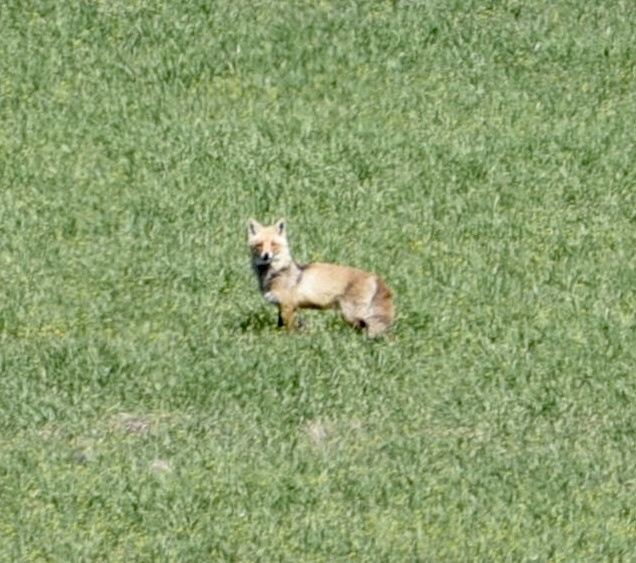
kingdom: Animalia
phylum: Chordata
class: Mammalia
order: Carnivora
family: Canidae
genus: Vulpes
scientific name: Vulpes vulpes
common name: Red fox
